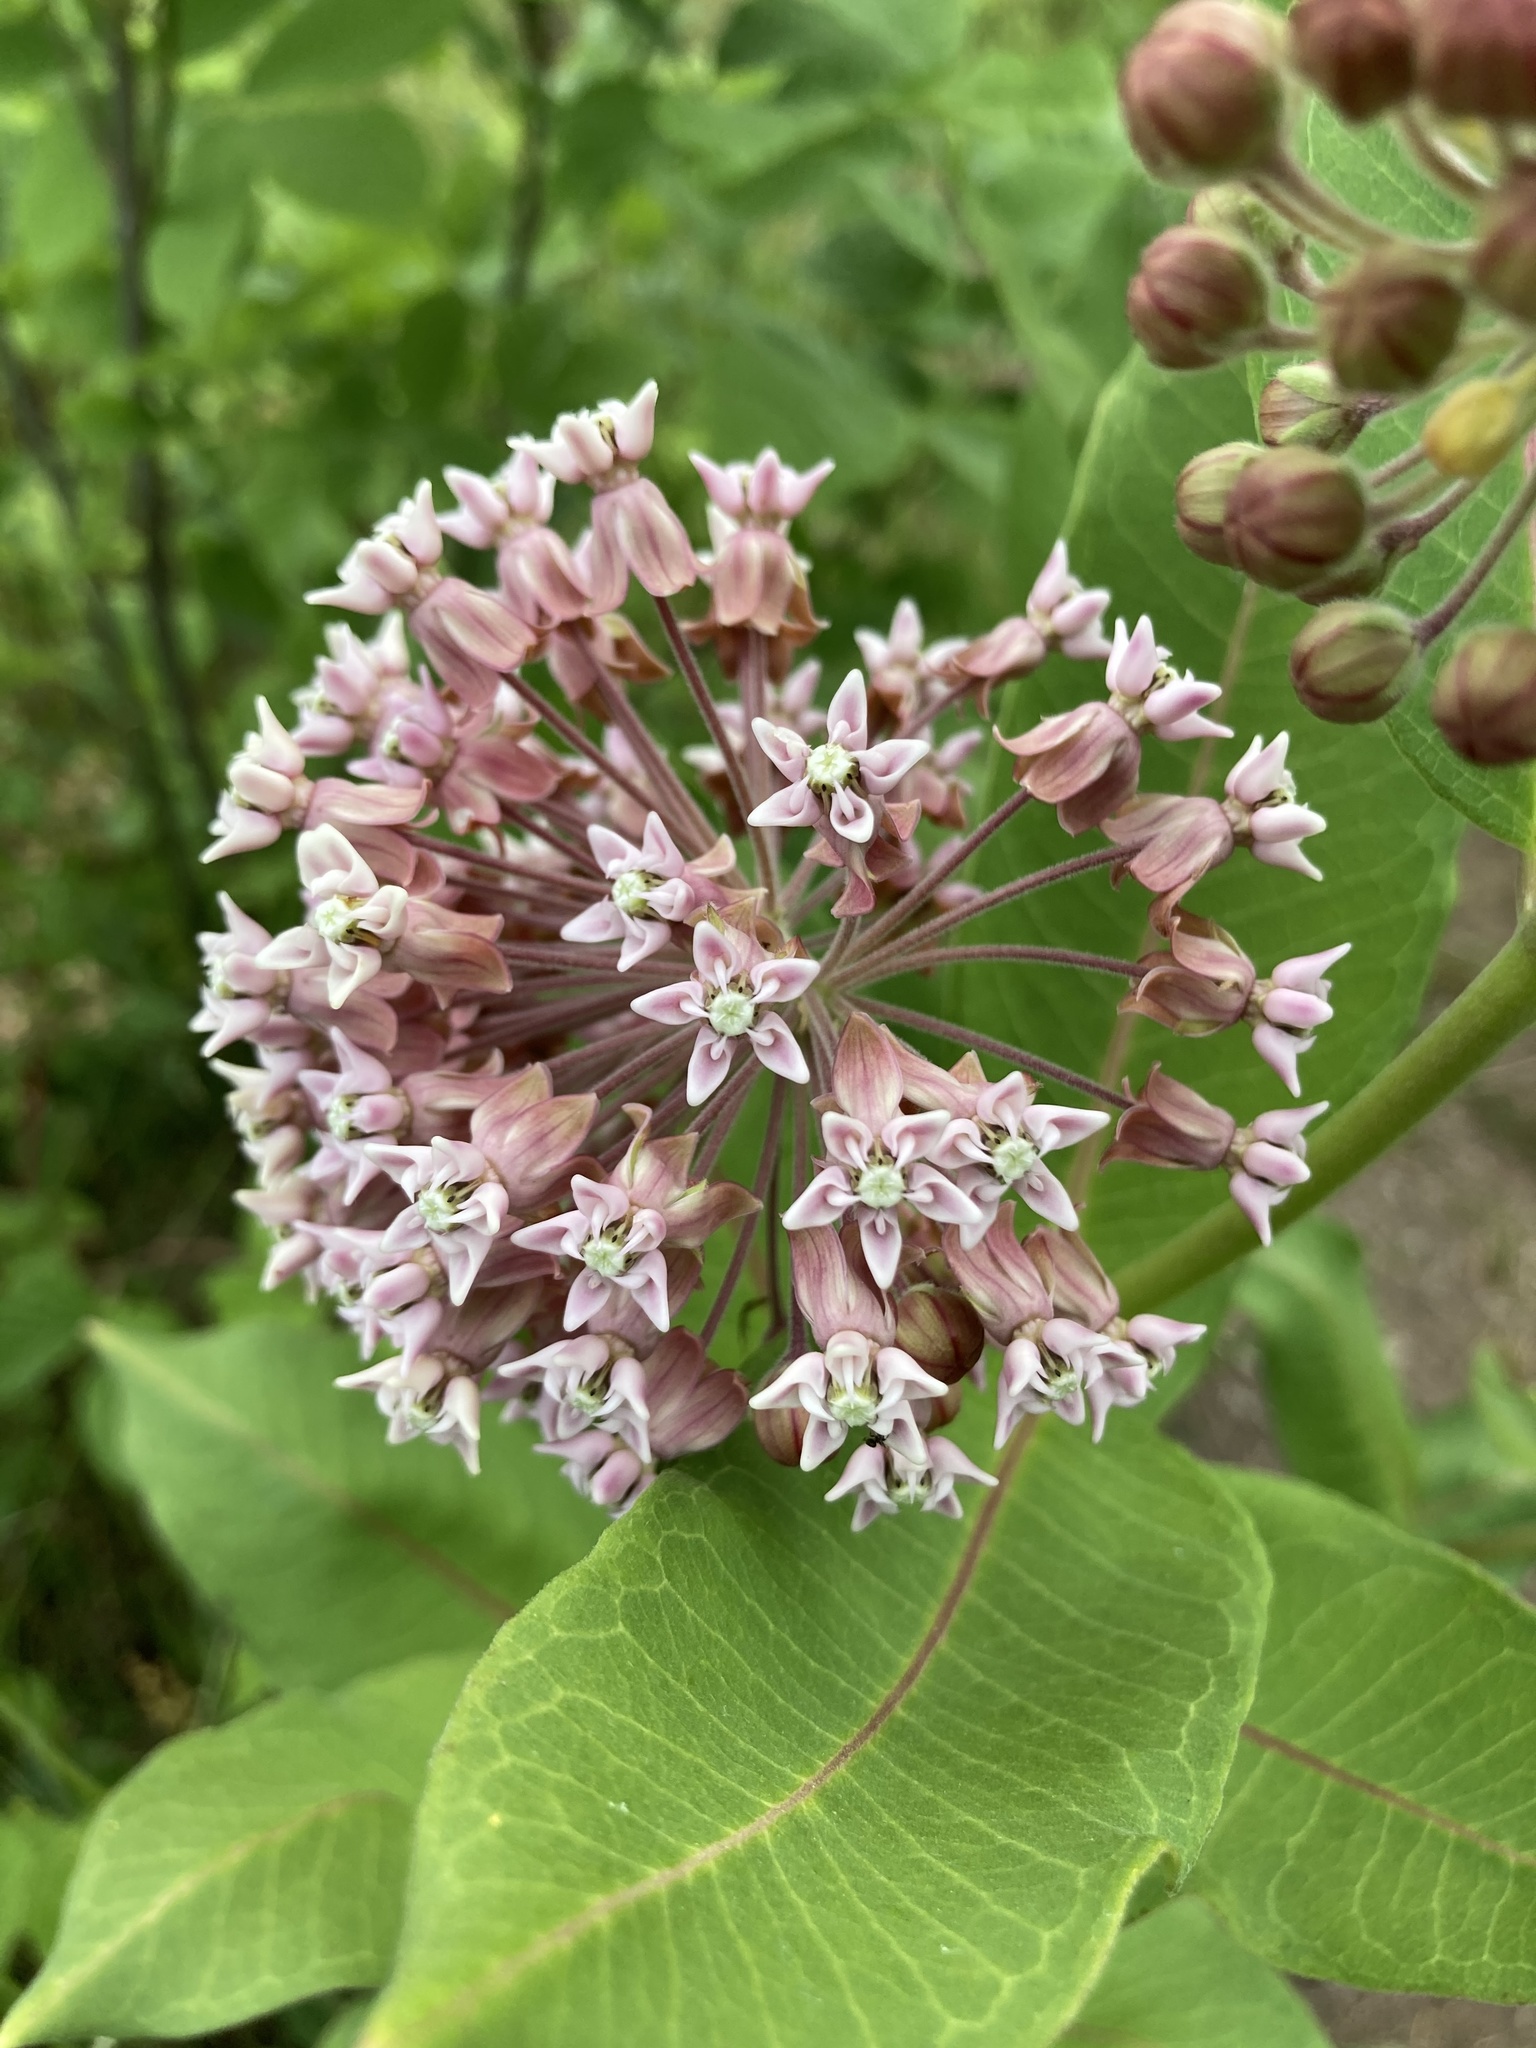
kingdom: Plantae
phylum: Tracheophyta
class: Magnoliopsida
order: Gentianales
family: Apocynaceae
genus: Asclepias
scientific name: Asclepias syriaca
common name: Common milkweed
